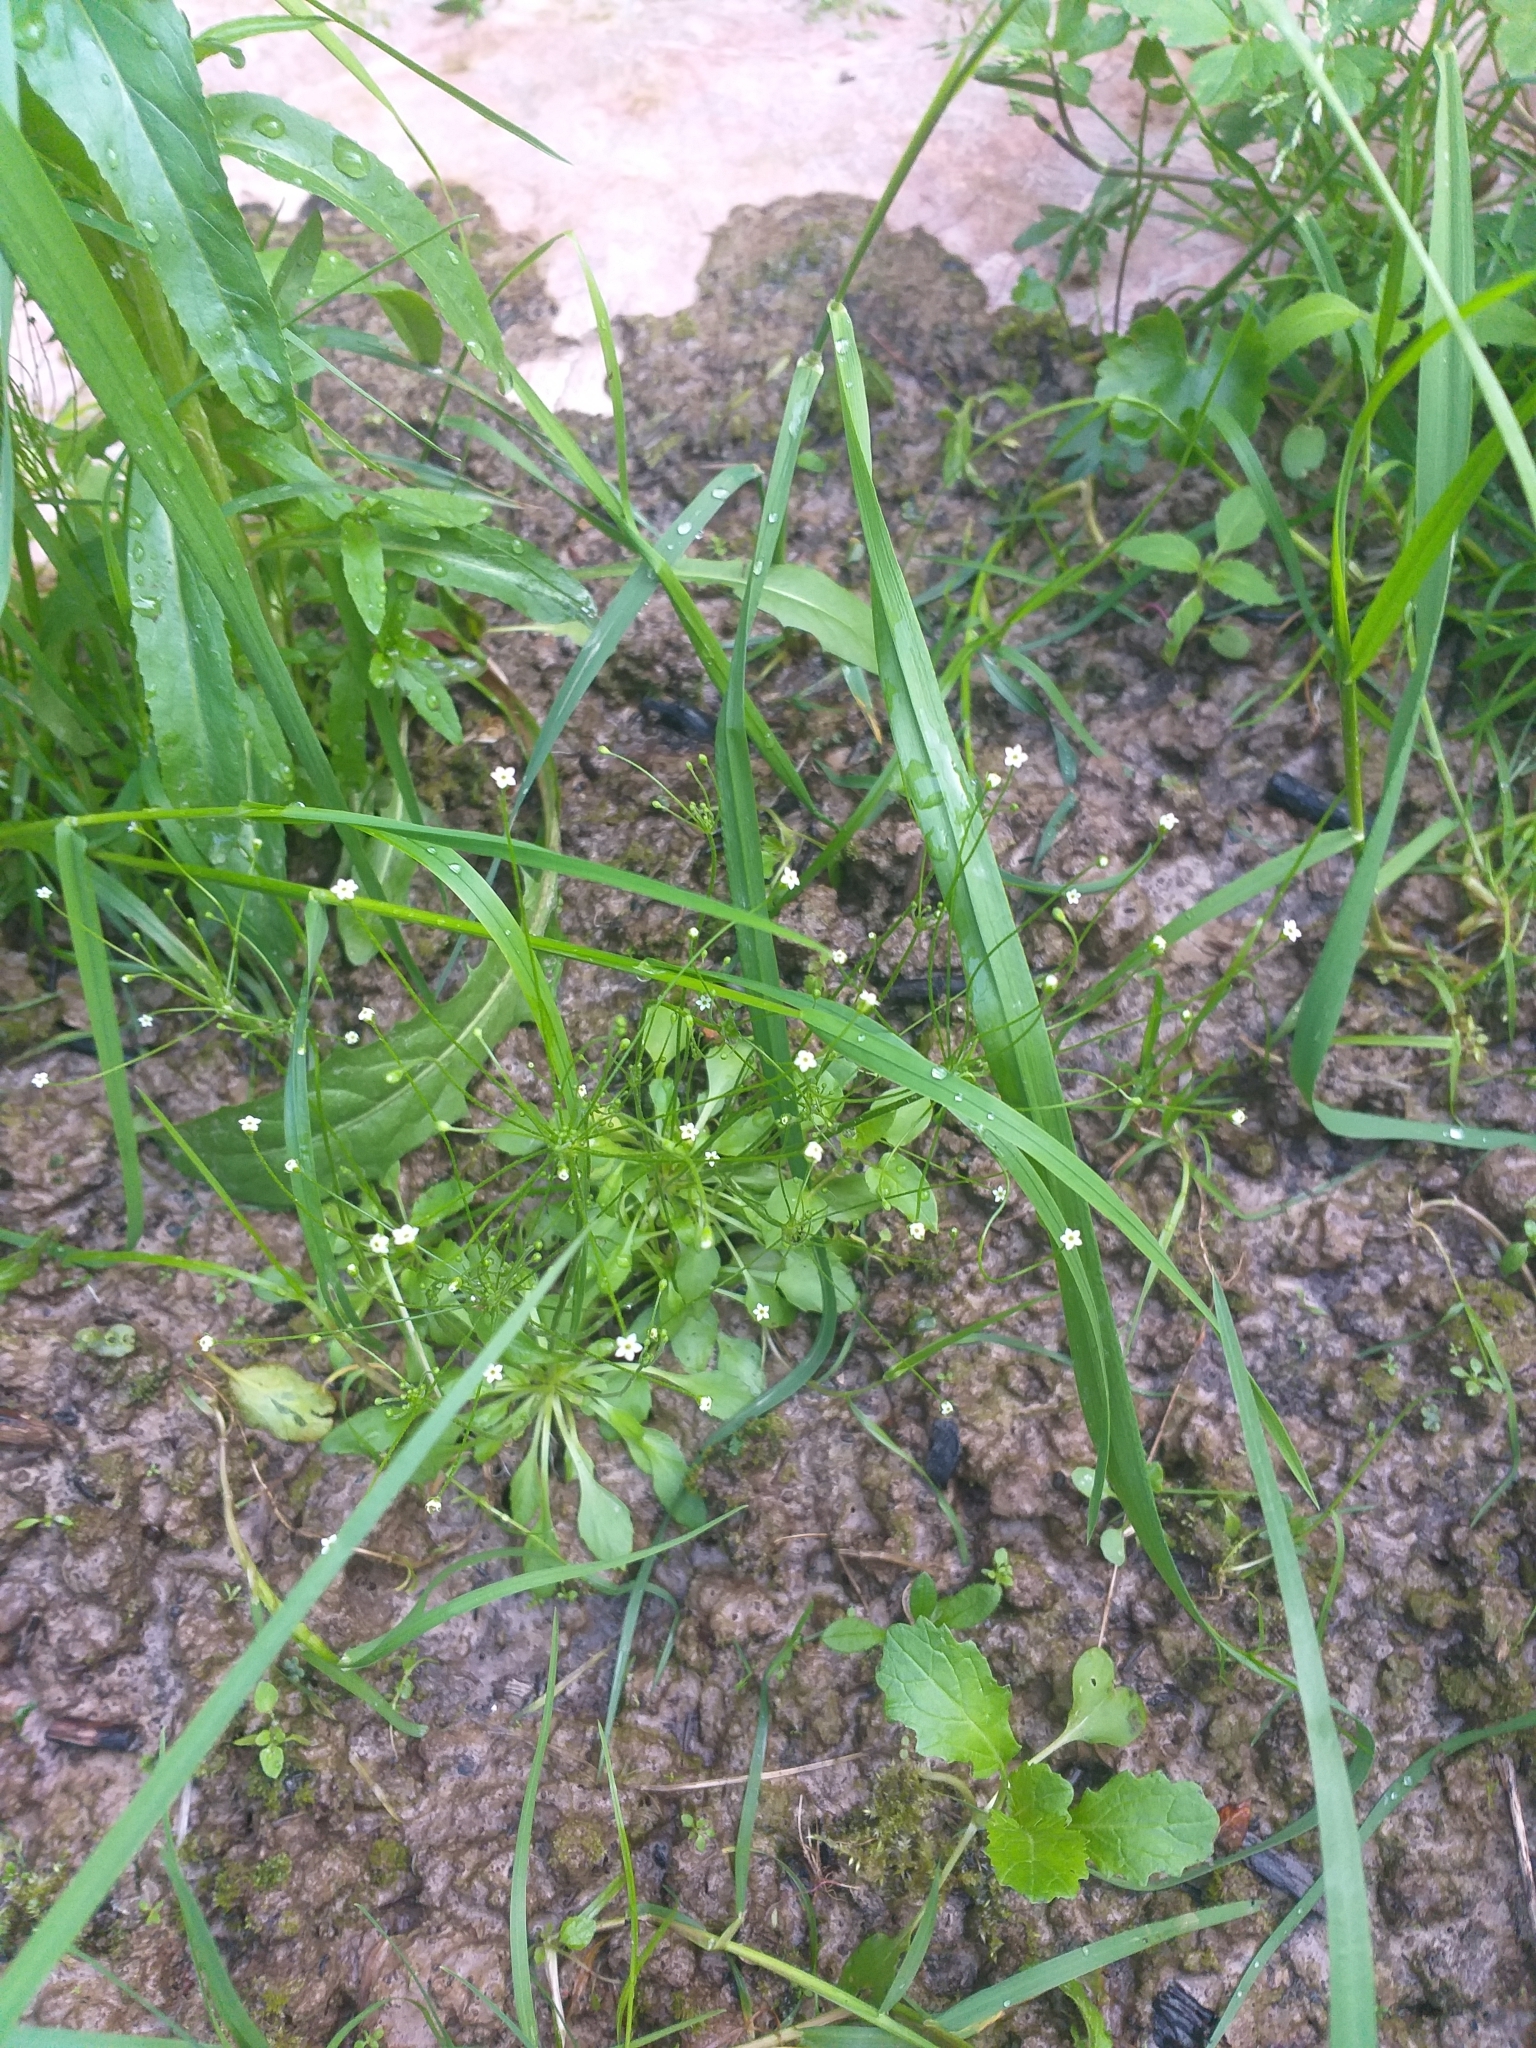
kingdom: Plantae
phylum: Tracheophyta
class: Magnoliopsida
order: Ericales
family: Primulaceae
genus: Androsace
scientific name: Androsace filiformis
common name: Filiform rock jasmine
